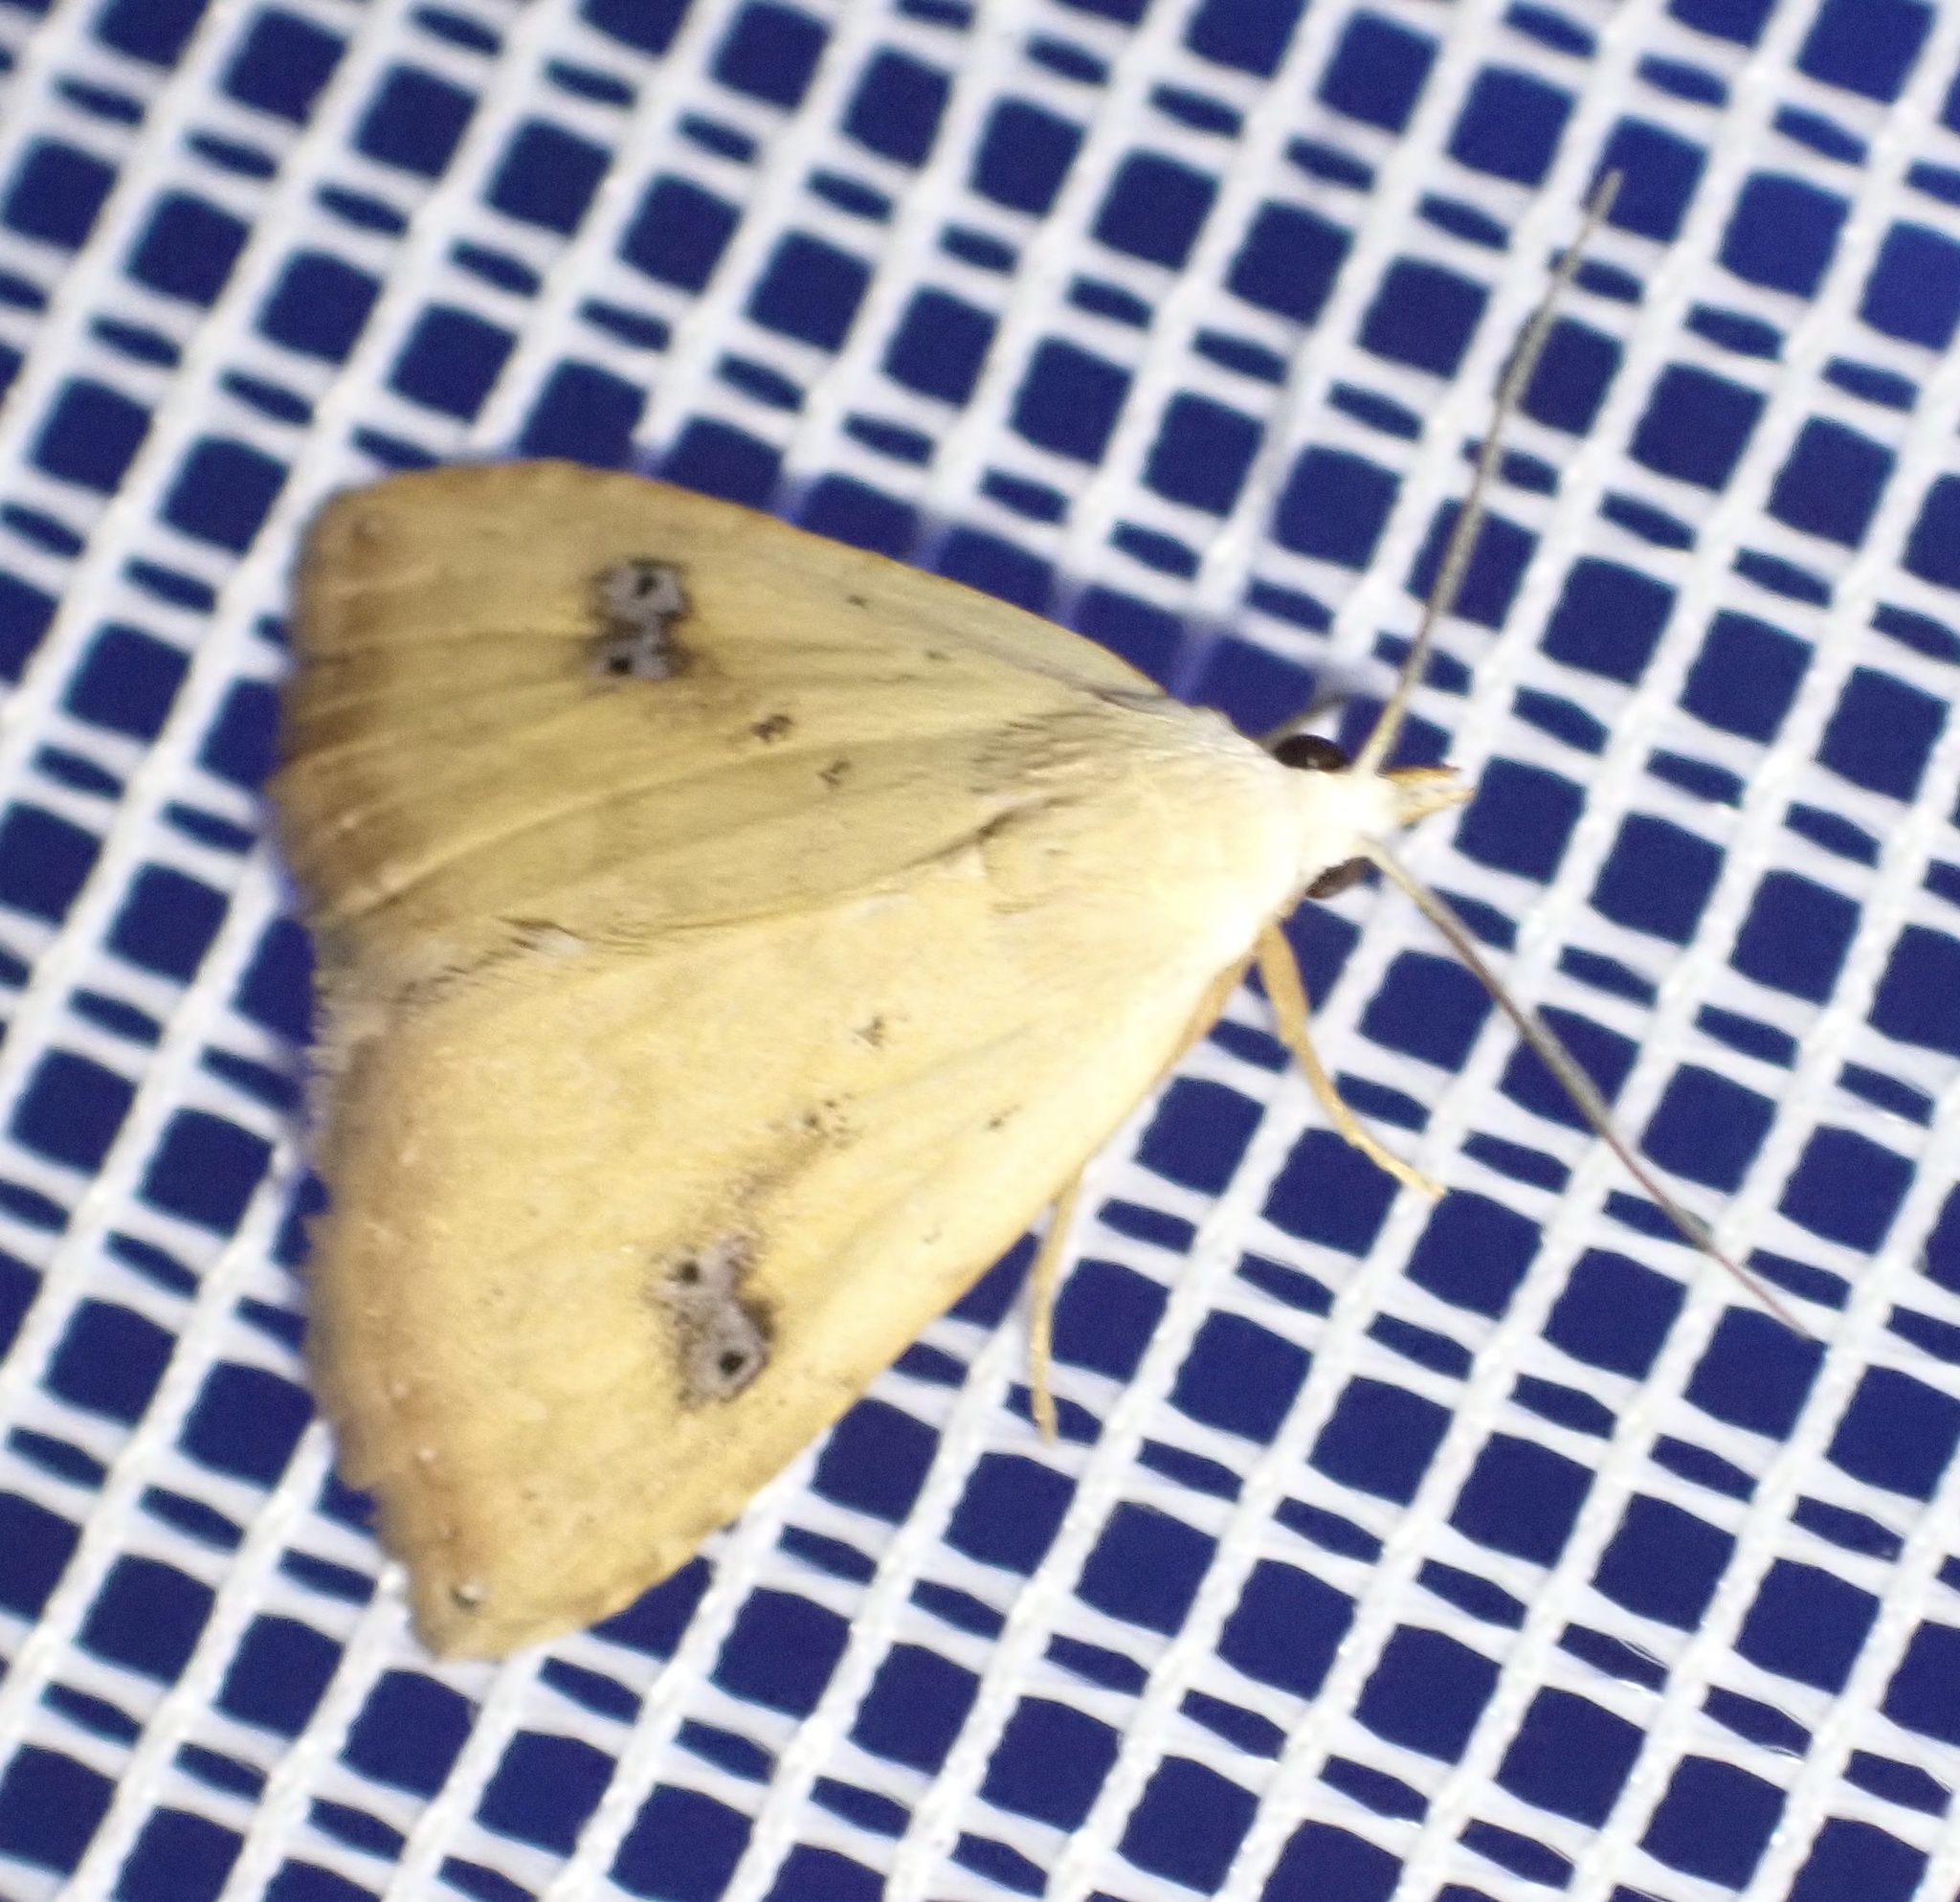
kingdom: Animalia
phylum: Arthropoda
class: Insecta
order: Lepidoptera
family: Erebidae
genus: Rivula
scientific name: Rivula sericealis
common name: Straw dot
